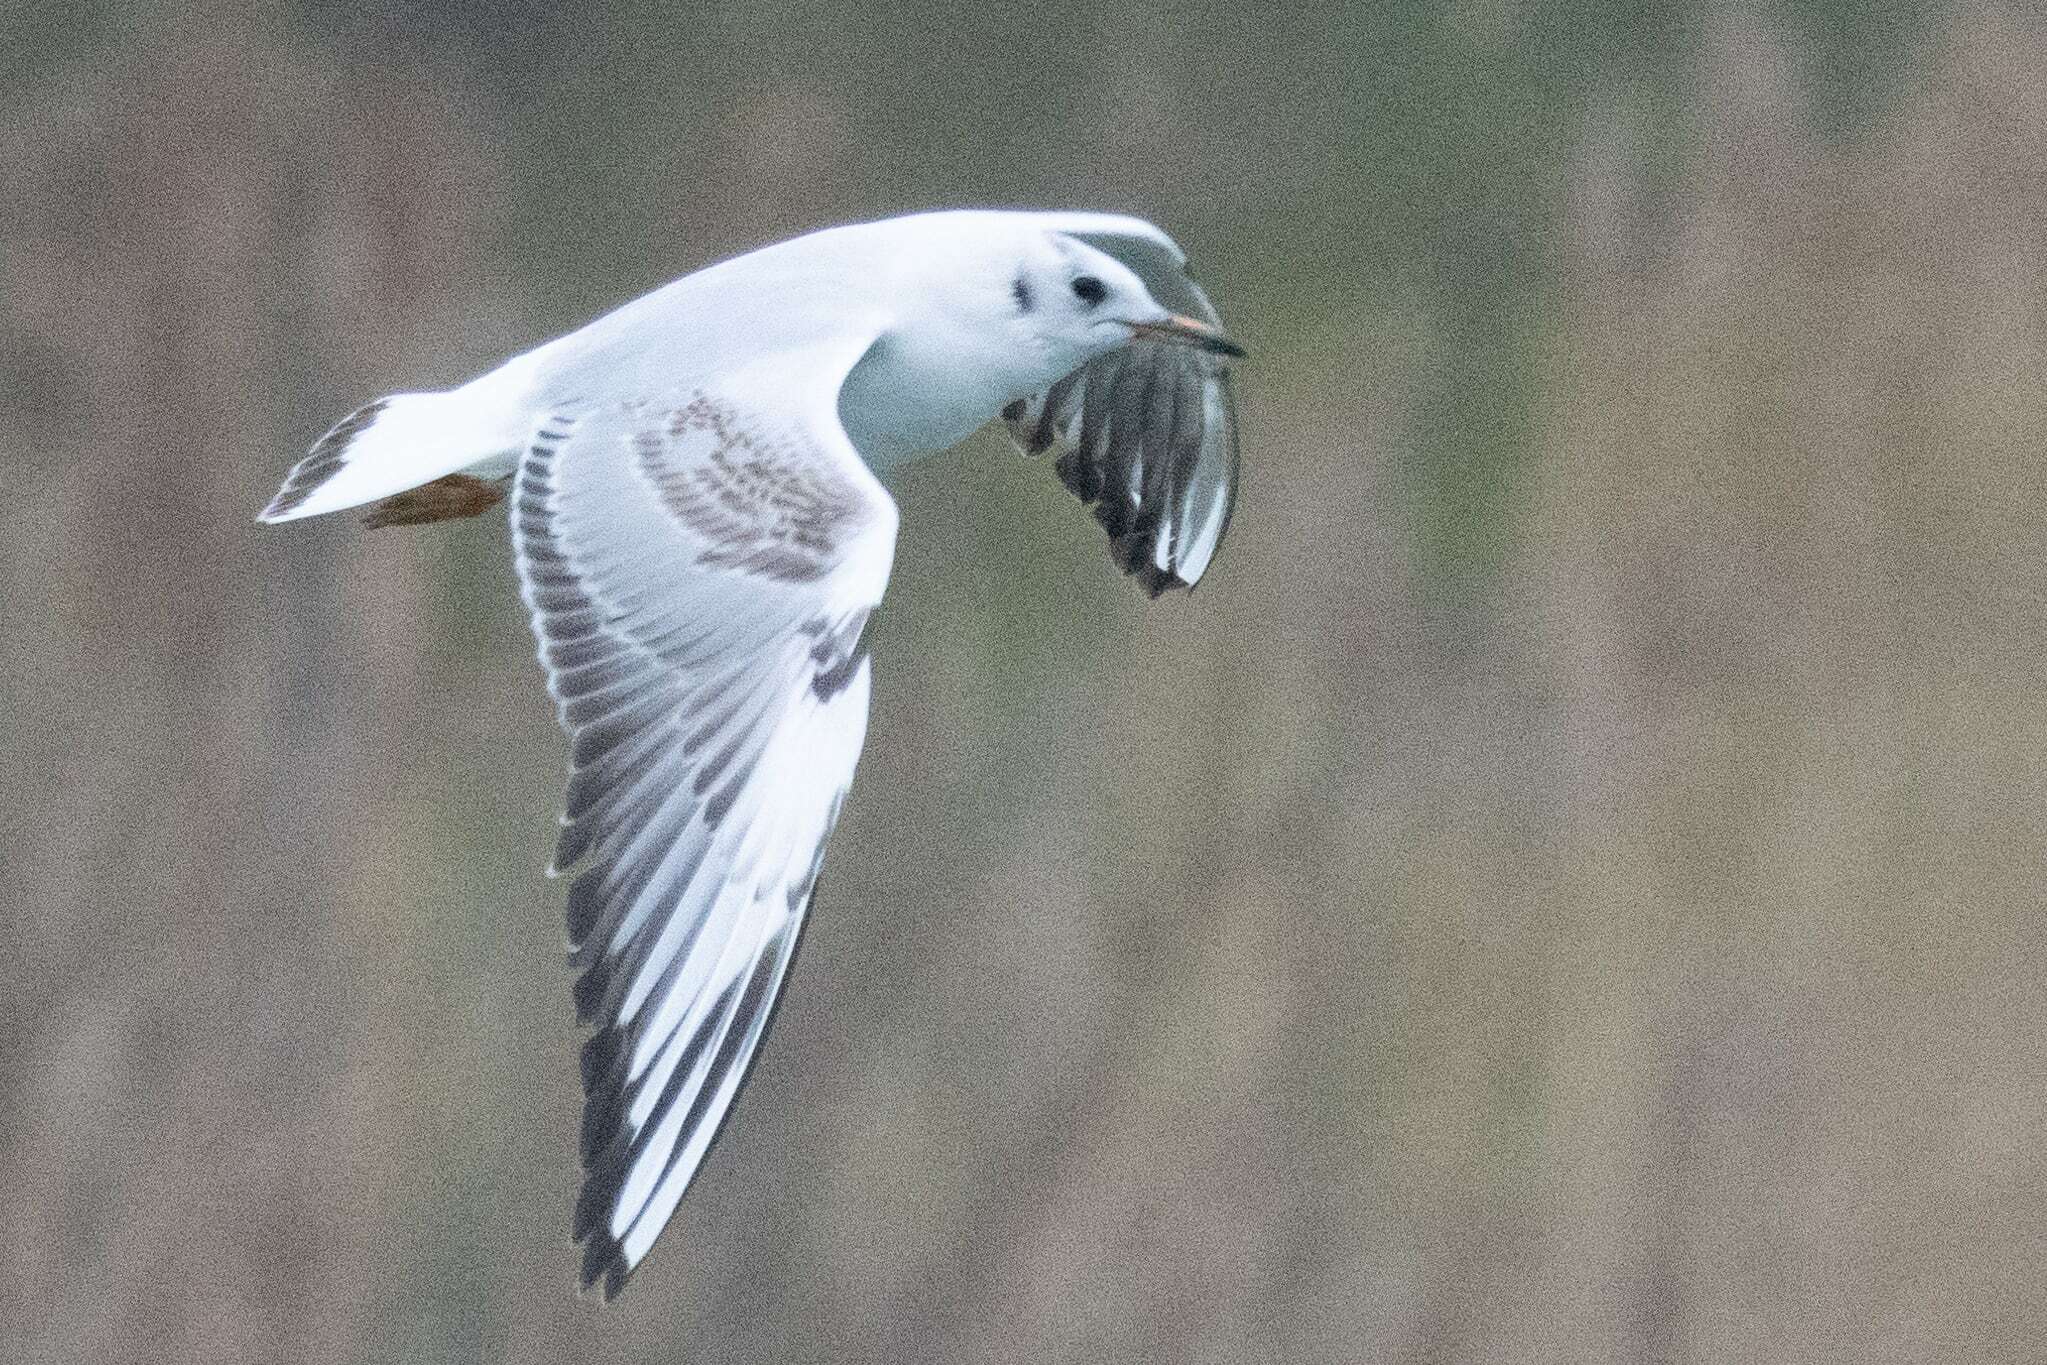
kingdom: Animalia
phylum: Chordata
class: Aves
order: Charadriiformes
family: Laridae
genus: Chroicocephalus
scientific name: Chroicocephalus ridibundus
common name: Black-headed gull
